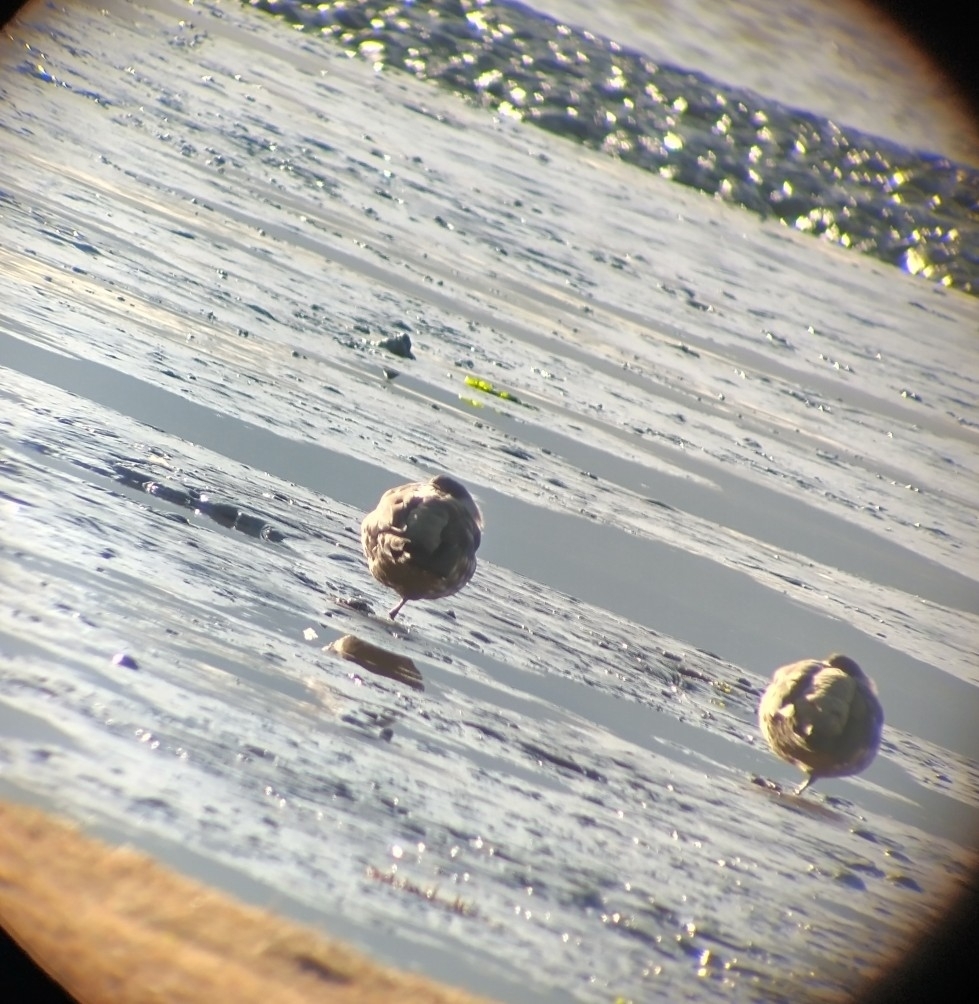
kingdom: Animalia
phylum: Chordata
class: Aves
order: Anseriformes
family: Anatidae
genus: Lophonetta
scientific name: Lophonetta specularioides
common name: Crested duck
